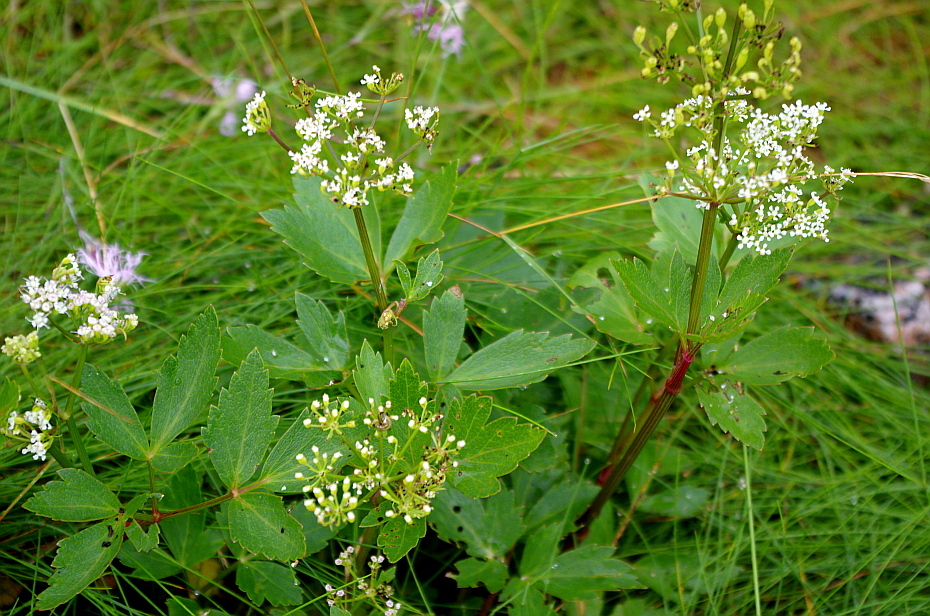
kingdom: Plantae
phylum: Tracheophyta
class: Magnoliopsida
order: Apiales
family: Apiaceae
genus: Ligusticum
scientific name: Ligusticum scothicum
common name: Beach lovage
